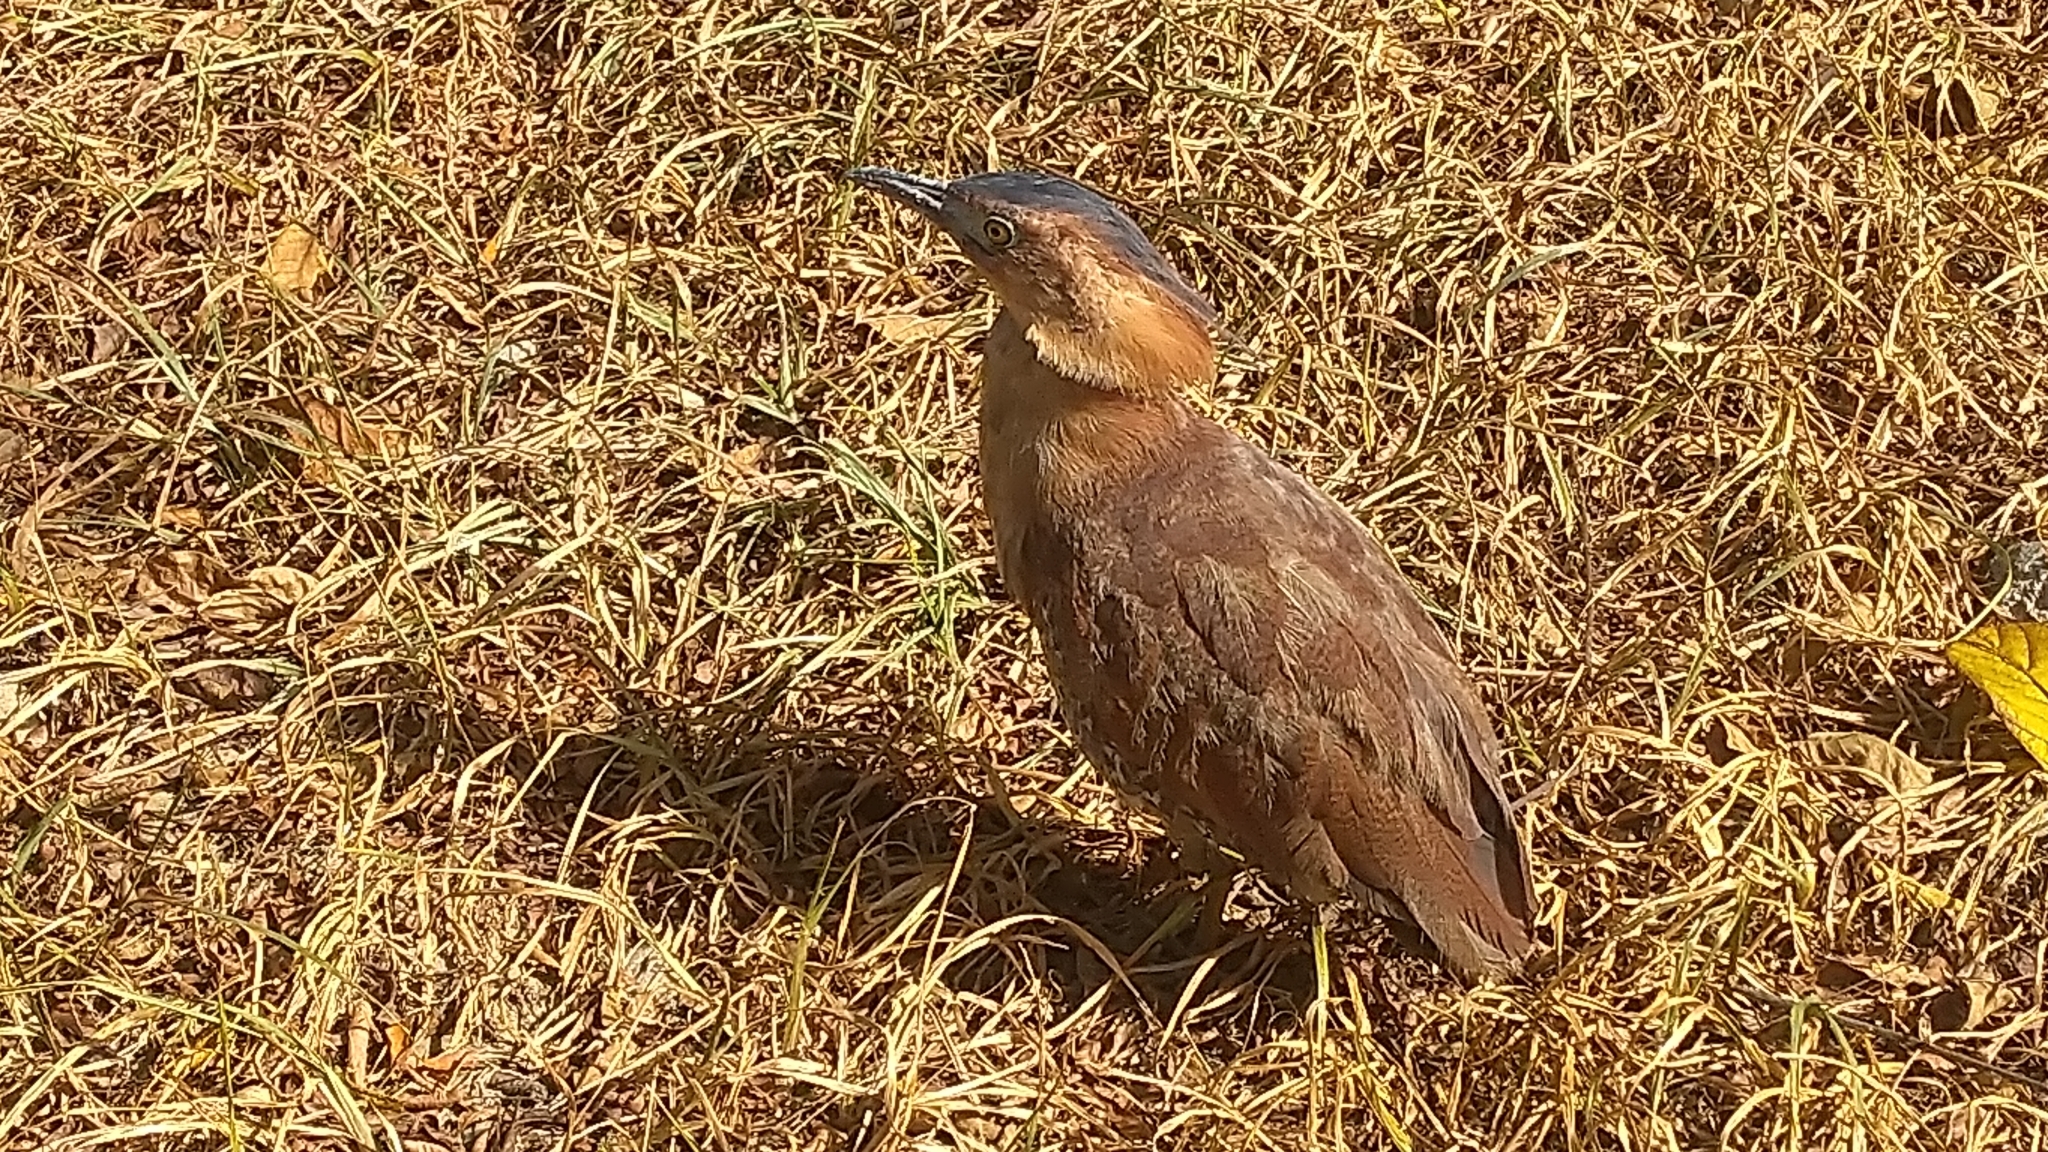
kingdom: Animalia
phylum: Chordata
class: Aves
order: Pelecaniformes
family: Ardeidae
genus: Gorsachius
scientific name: Gorsachius melanolophus
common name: Malayan night heron
